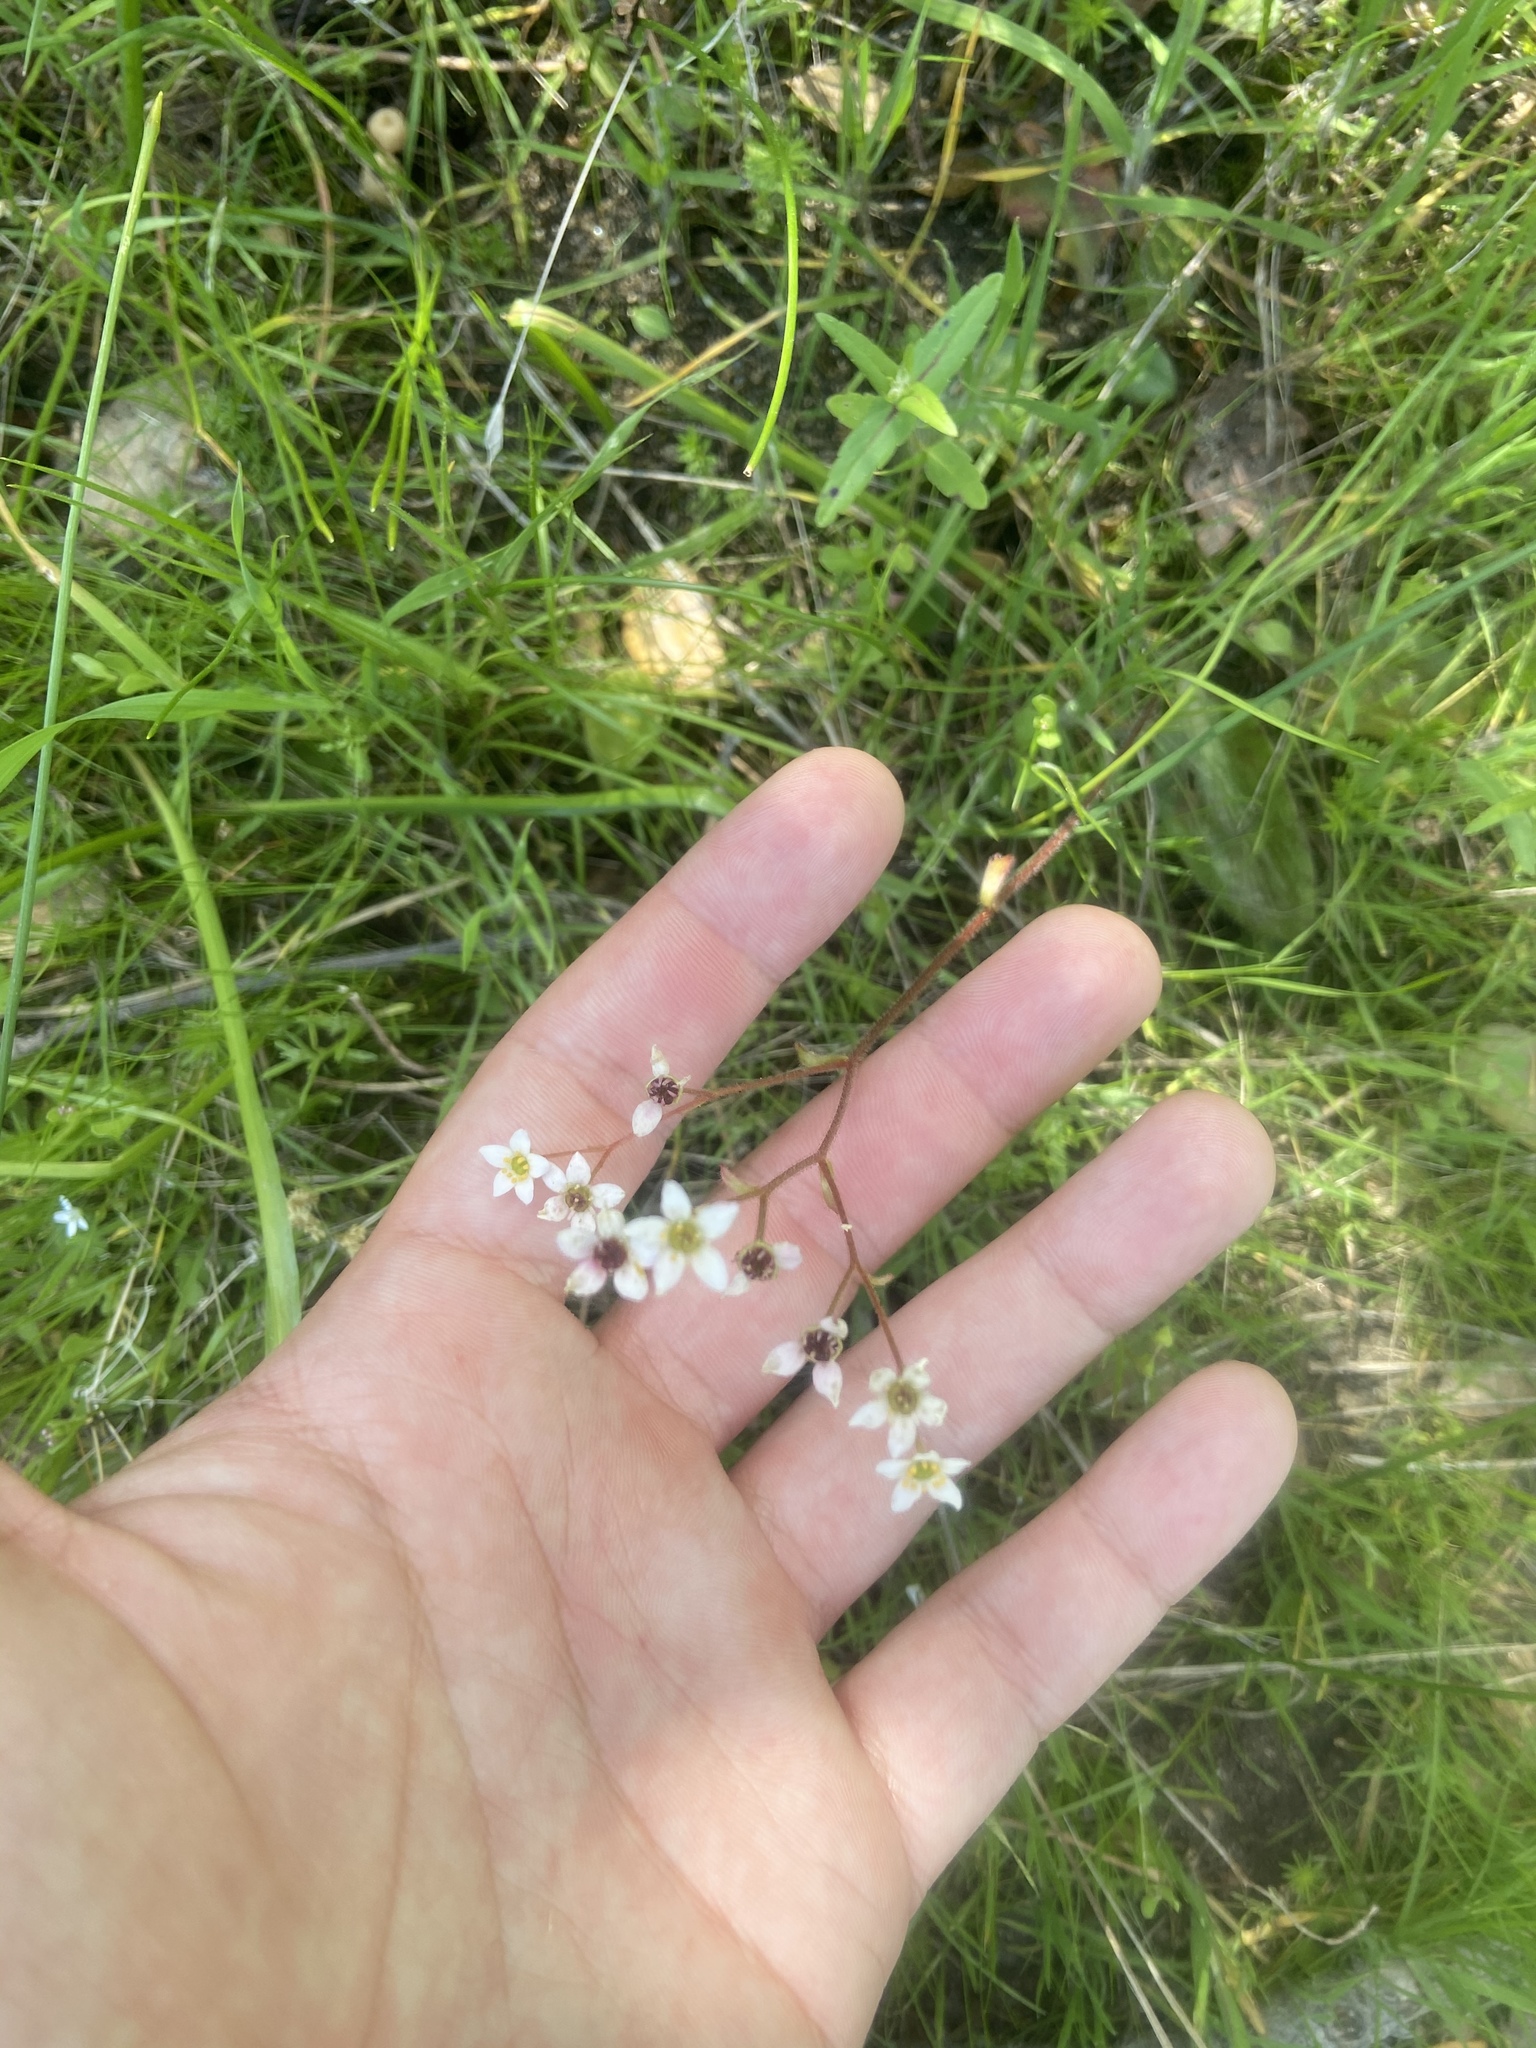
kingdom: Plantae
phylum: Tracheophyta
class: Magnoliopsida
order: Saxifragales
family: Saxifragaceae
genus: Micranthes
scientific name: Micranthes californica
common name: California saxifrage
